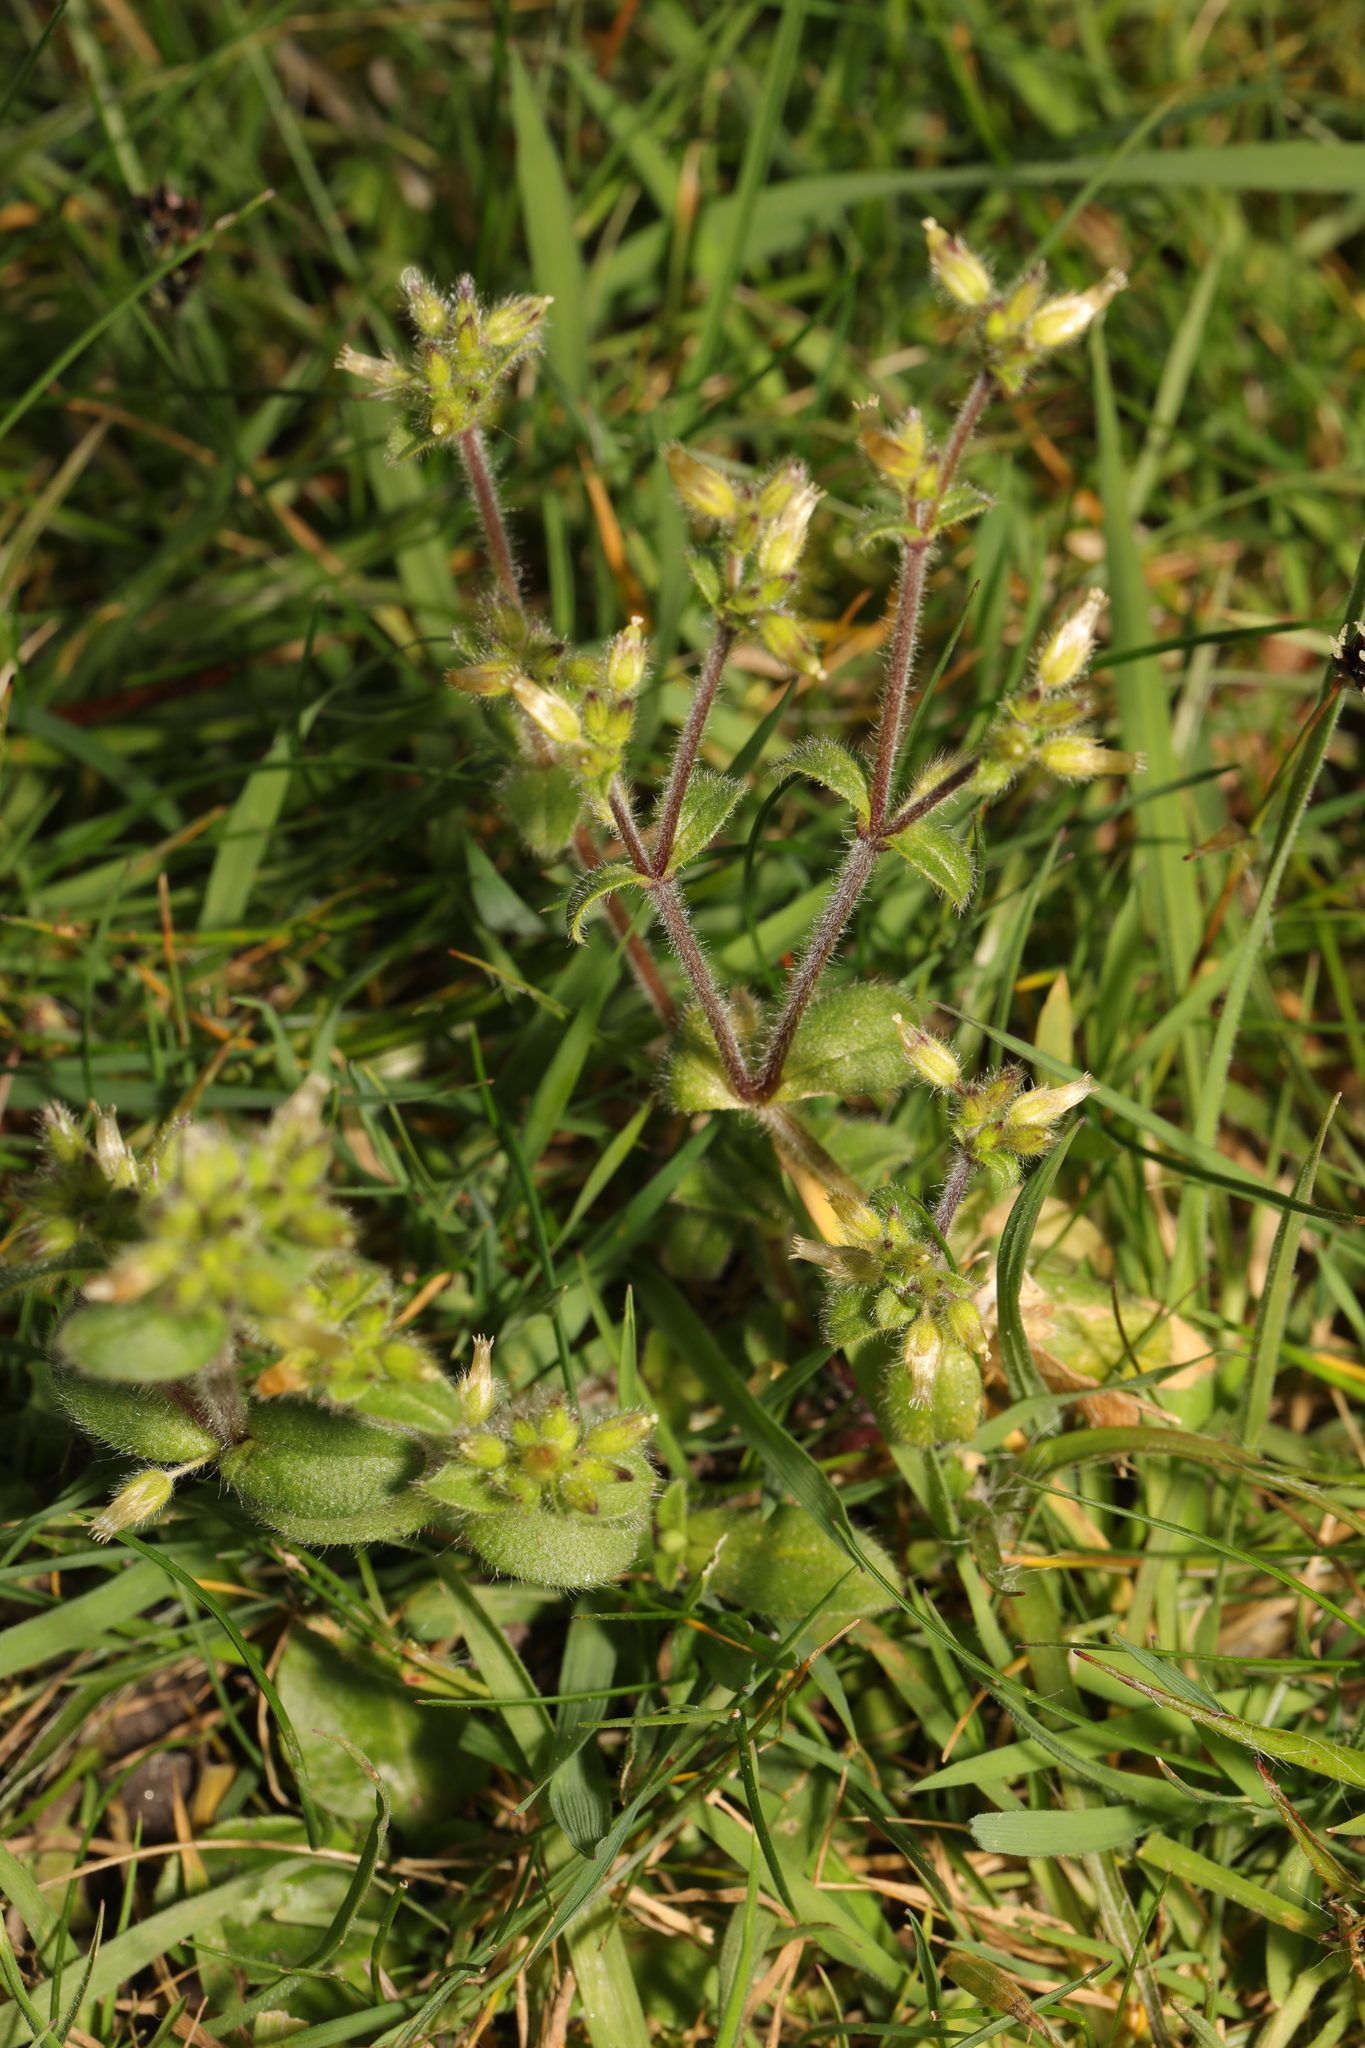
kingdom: Plantae
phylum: Tracheophyta
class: Magnoliopsida
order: Caryophyllales
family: Caryophyllaceae
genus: Cerastium
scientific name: Cerastium glomeratum
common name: Sticky chickweed
